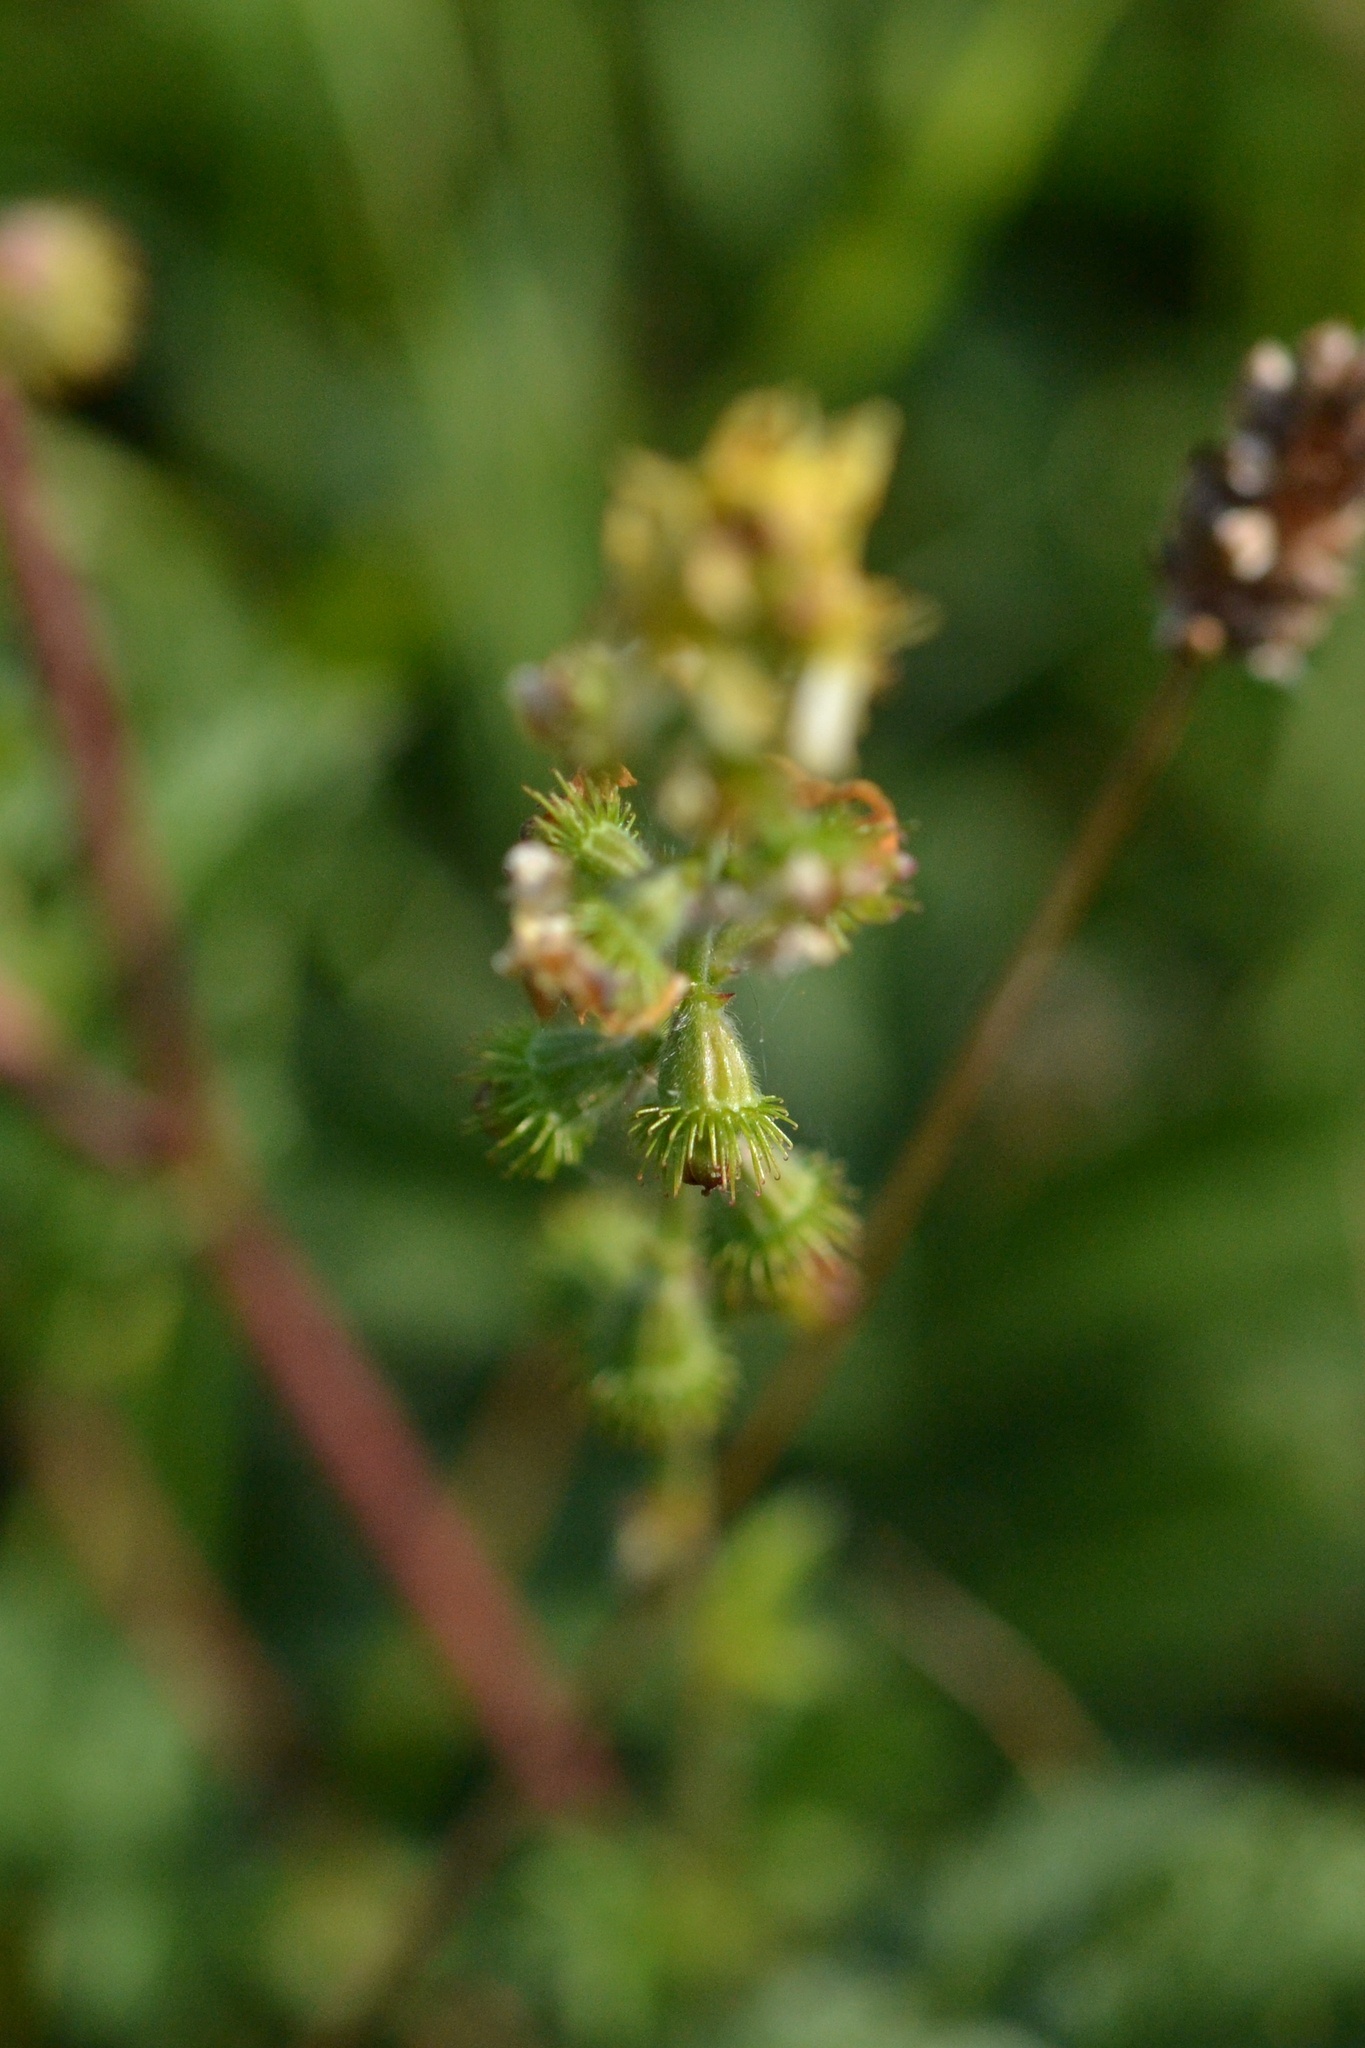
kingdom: Plantae
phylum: Tracheophyta
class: Magnoliopsida
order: Rosales
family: Rosaceae
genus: Agrimonia
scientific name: Agrimonia eupatoria
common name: Agrimony
